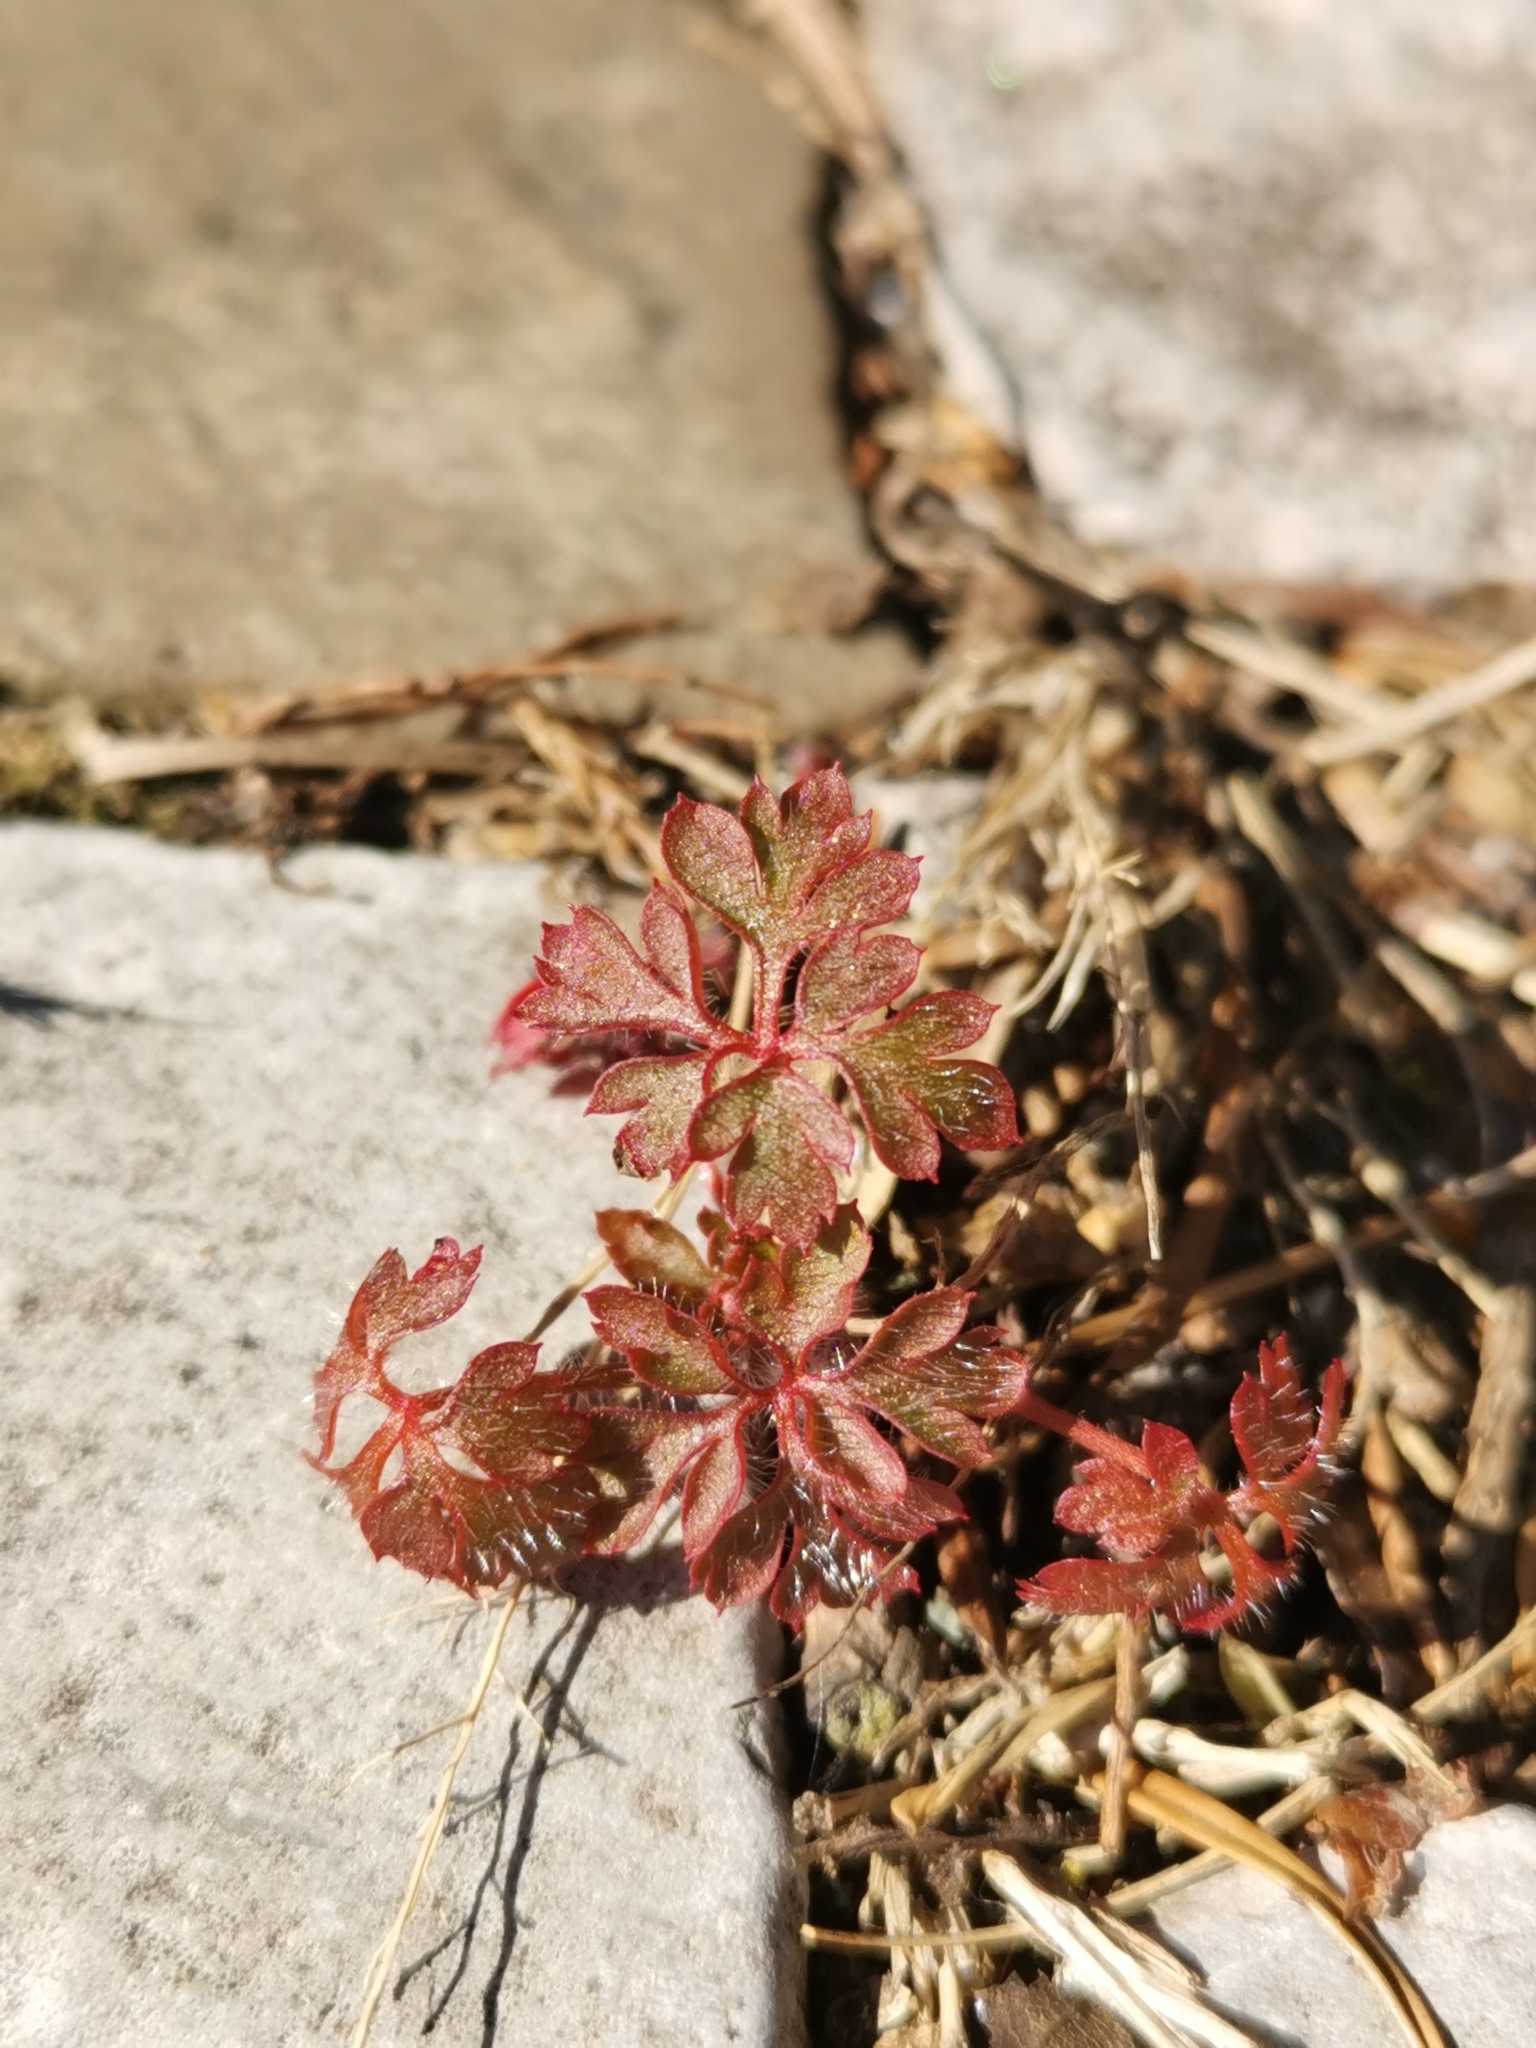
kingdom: Plantae
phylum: Tracheophyta
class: Magnoliopsida
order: Geraniales
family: Geraniaceae
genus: Geranium
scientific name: Geranium robertianum
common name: Herb-robert
